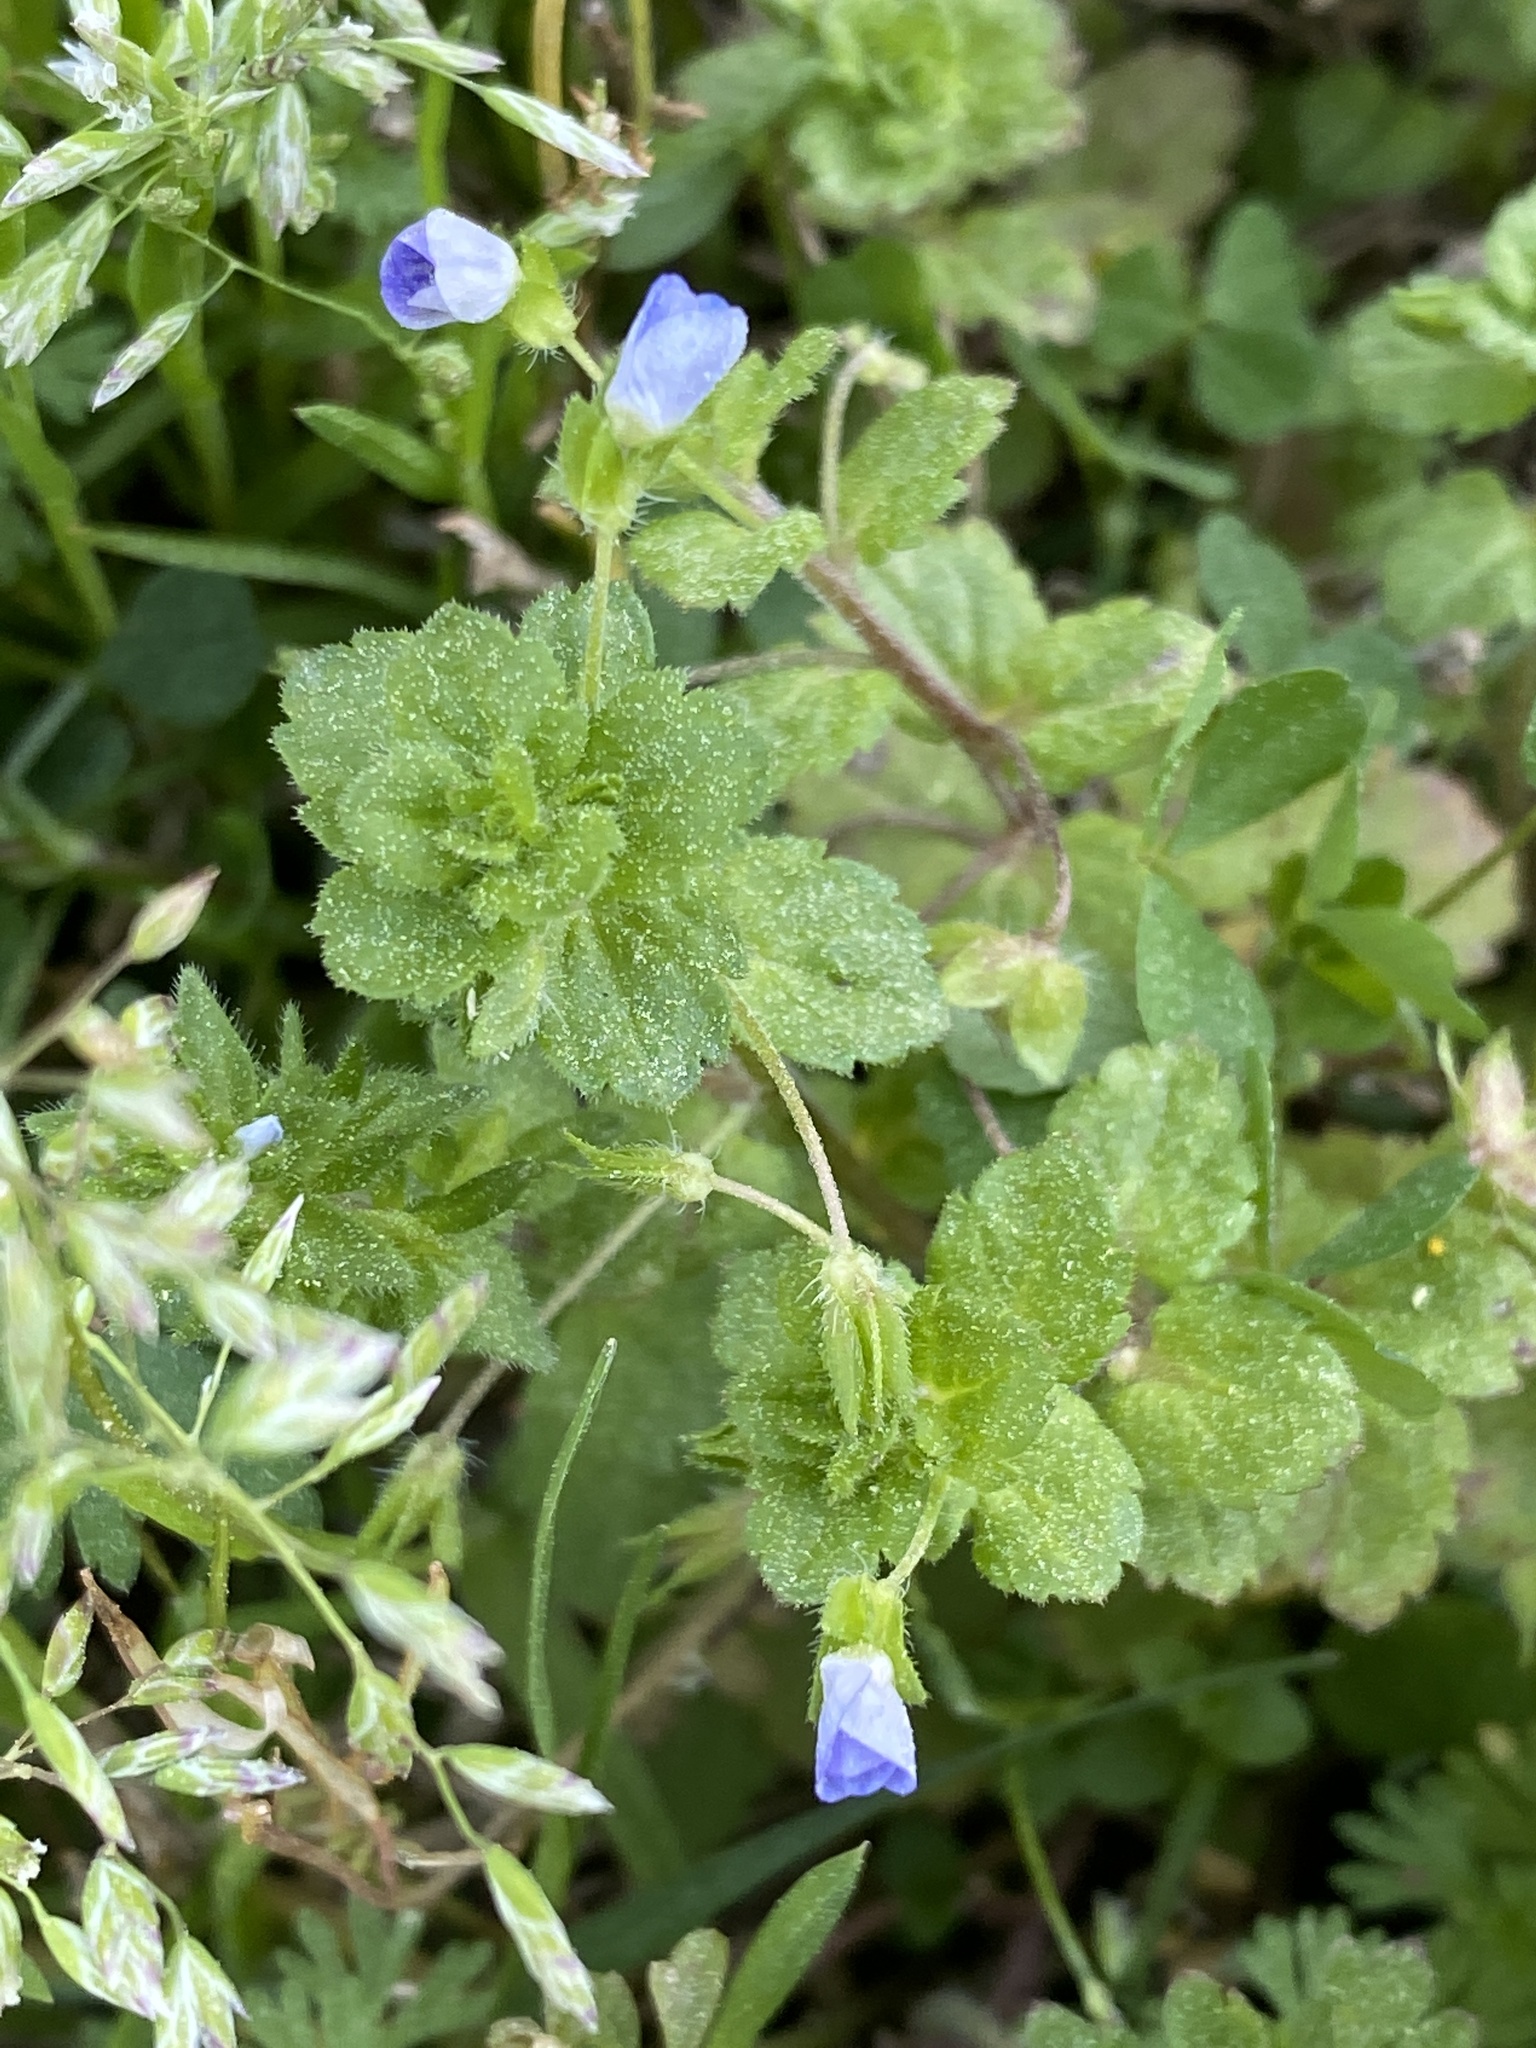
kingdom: Plantae
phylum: Tracheophyta
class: Magnoliopsida
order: Lamiales
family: Plantaginaceae
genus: Veronica
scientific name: Veronica persica
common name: Common field-speedwell
